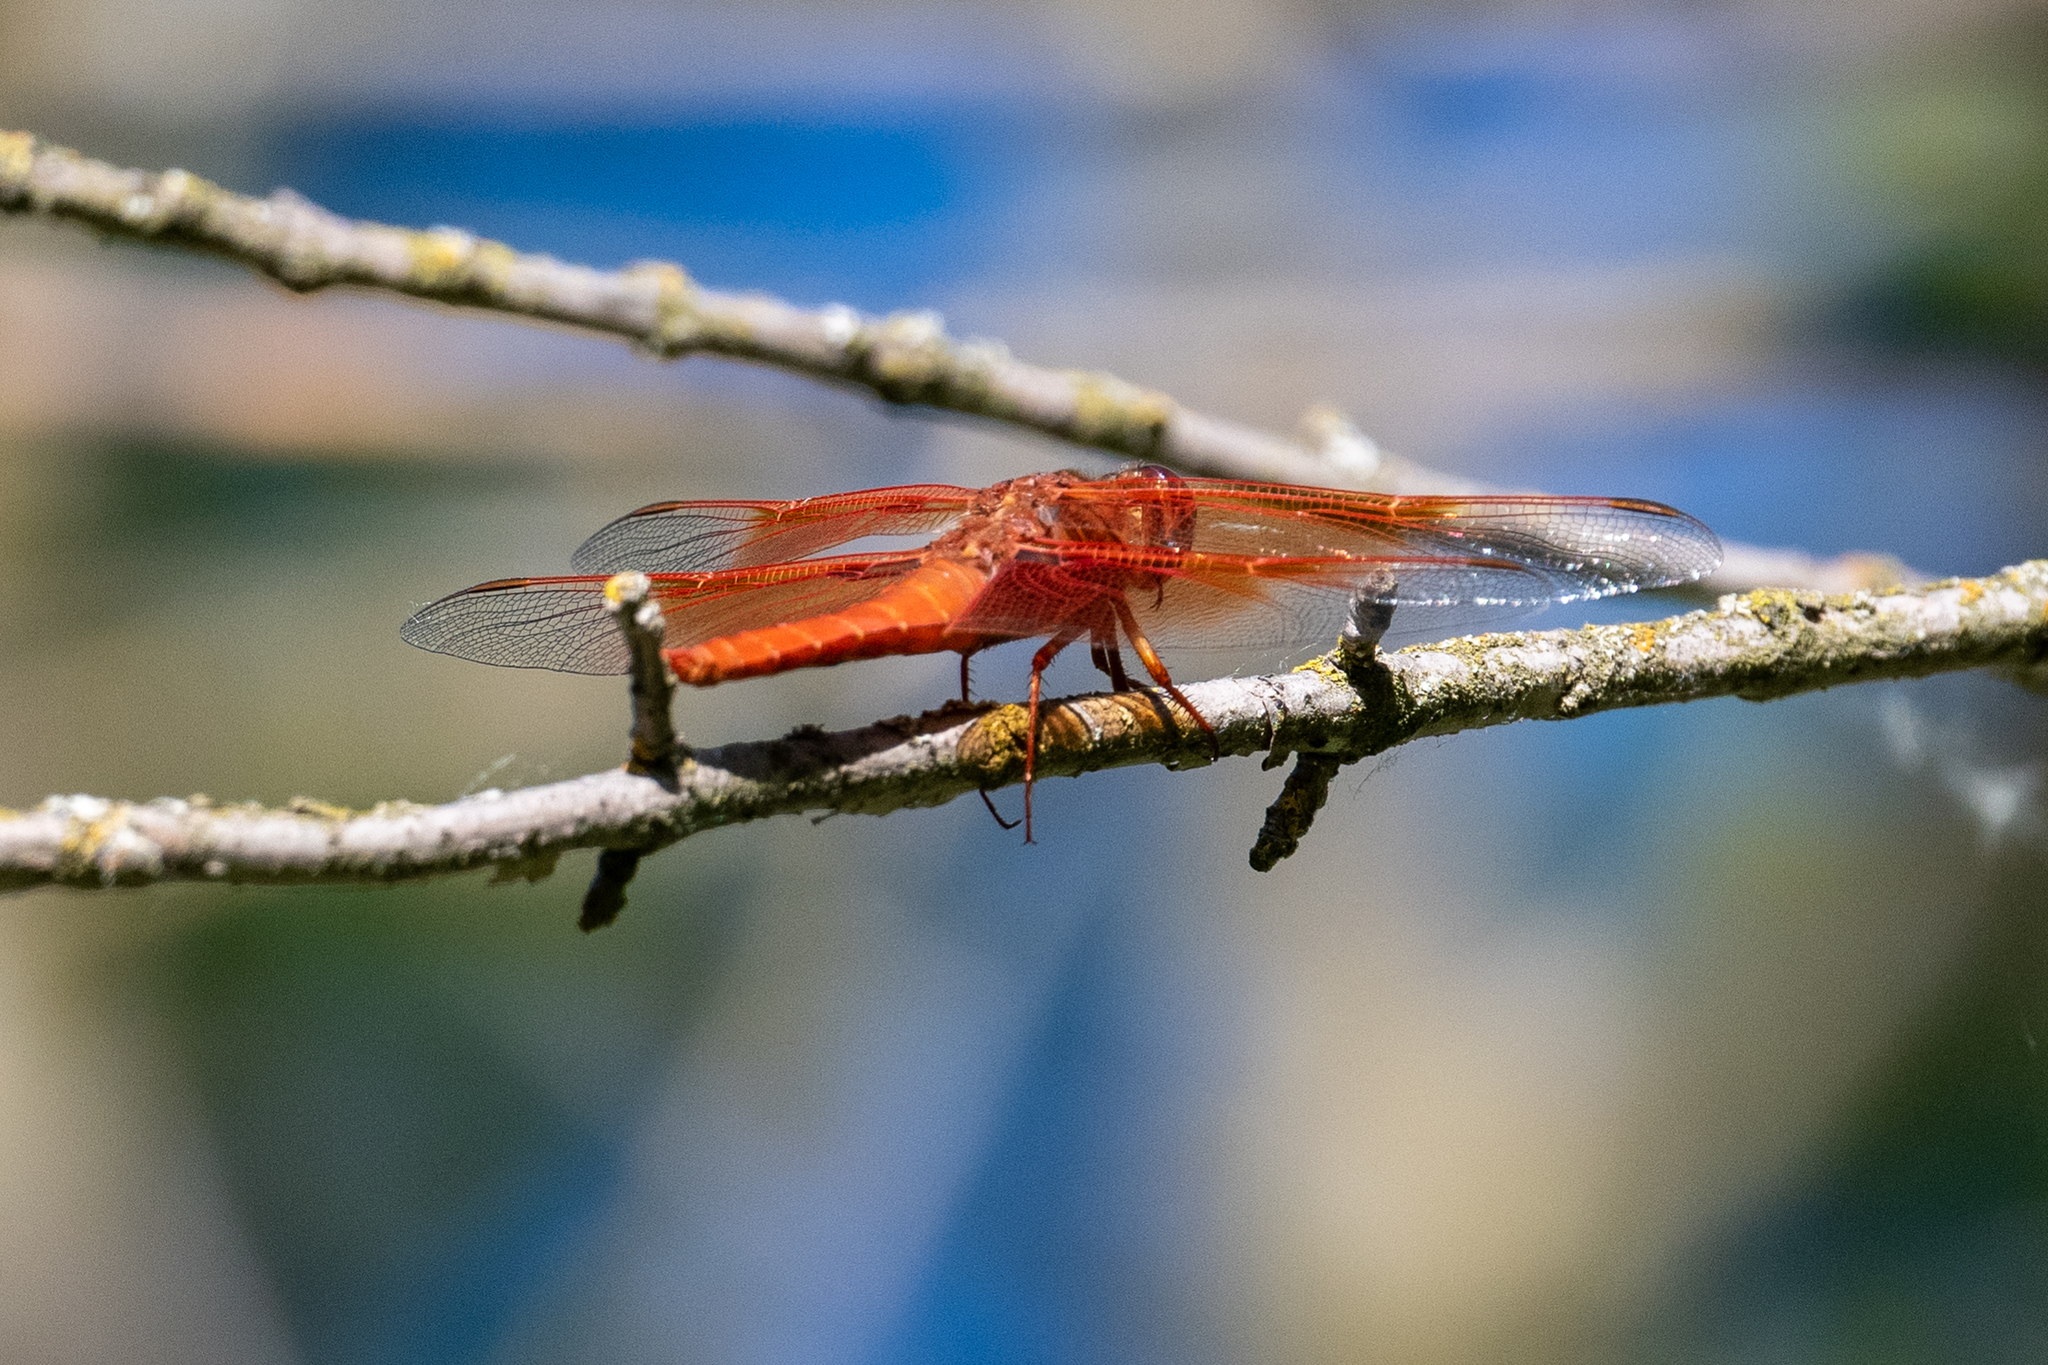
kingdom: Animalia
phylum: Arthropoda
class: Insecta
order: Odonata
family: Libellulidae
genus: Libellula
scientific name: Libellula saturata
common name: Flame skimmer
